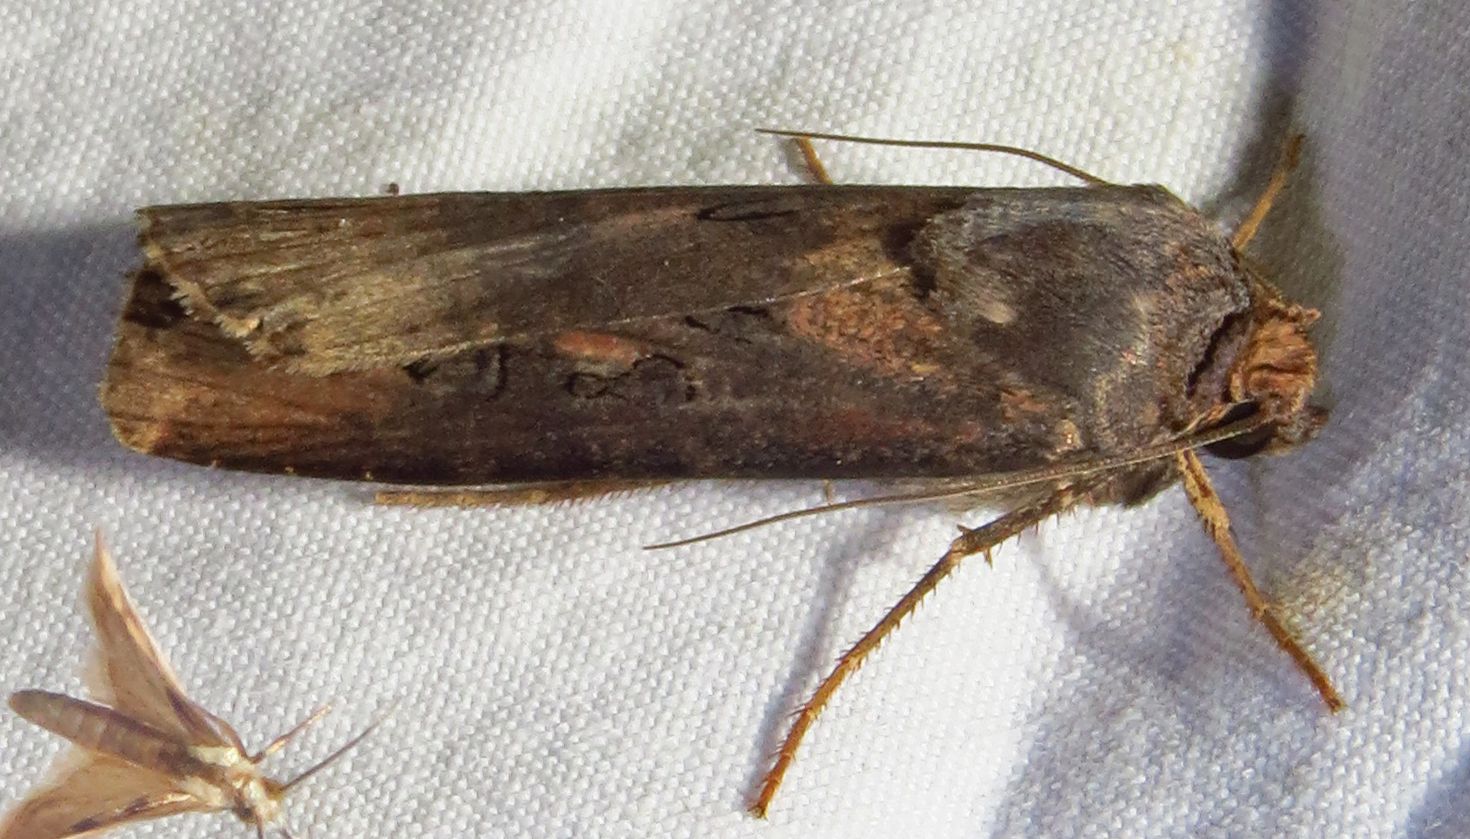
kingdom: Animalia
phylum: Arthropoda
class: Insecta
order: Lepidoptera
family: Noctuidae
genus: Agrotis
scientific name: Agrotis ipsilon
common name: Dark sword-grass
